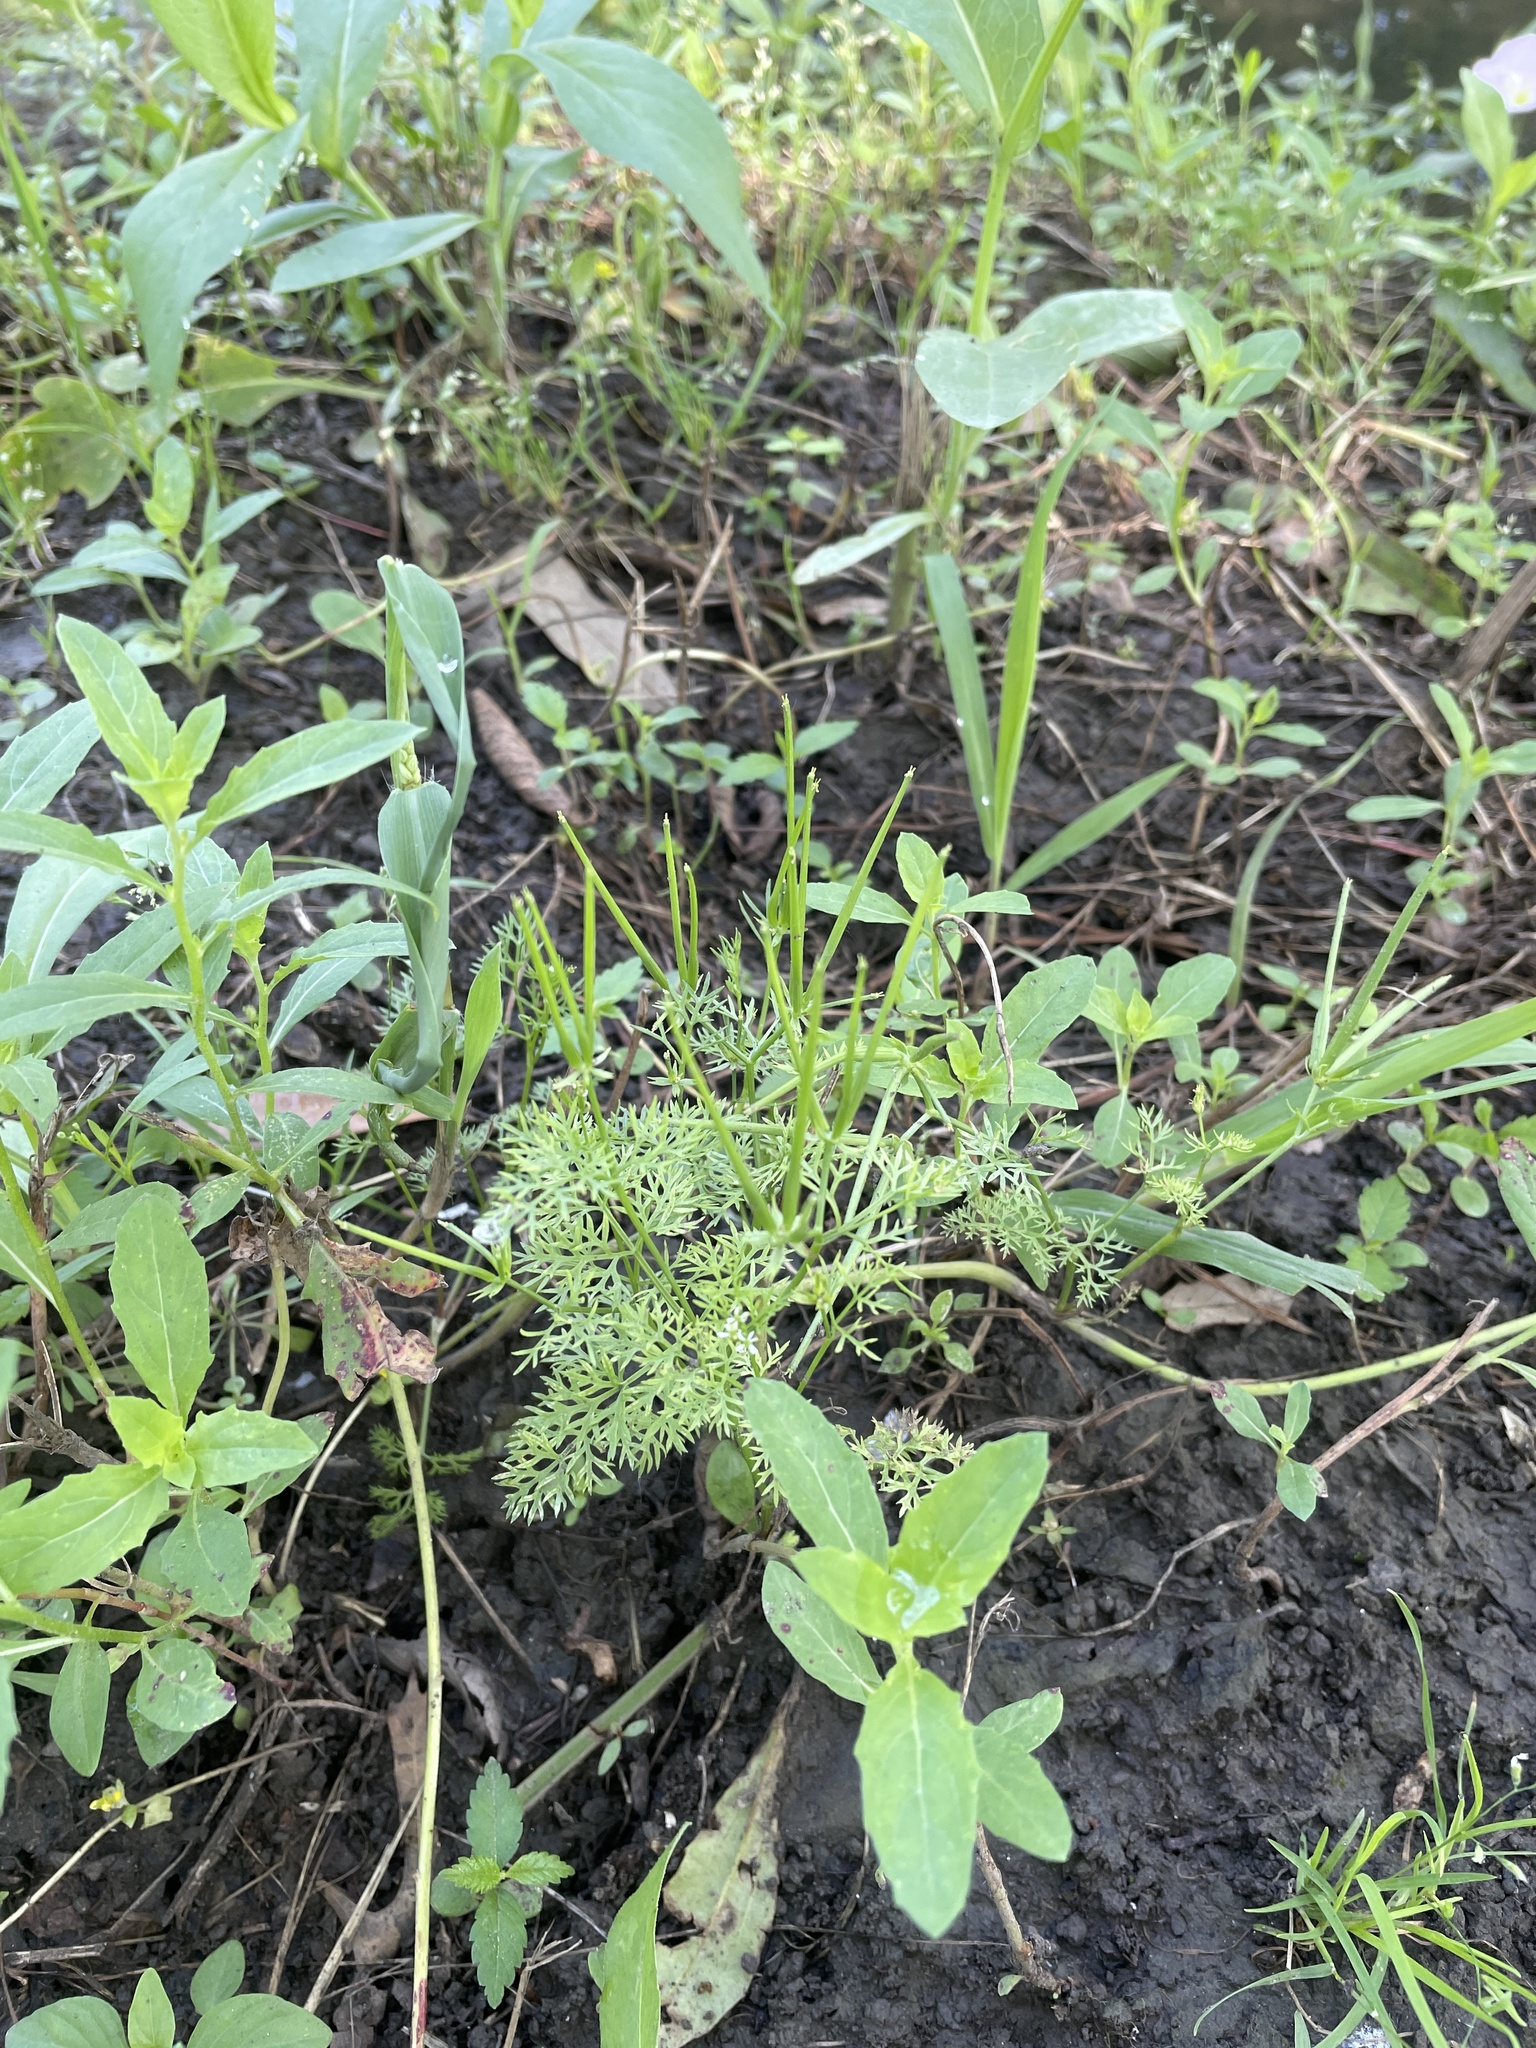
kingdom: Plantae
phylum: Tracheophyta
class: Magnoliopsida
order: Apiales
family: Apiaceae
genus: Scandix
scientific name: Scandix pecten-veneris
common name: Shepherd's-needle
